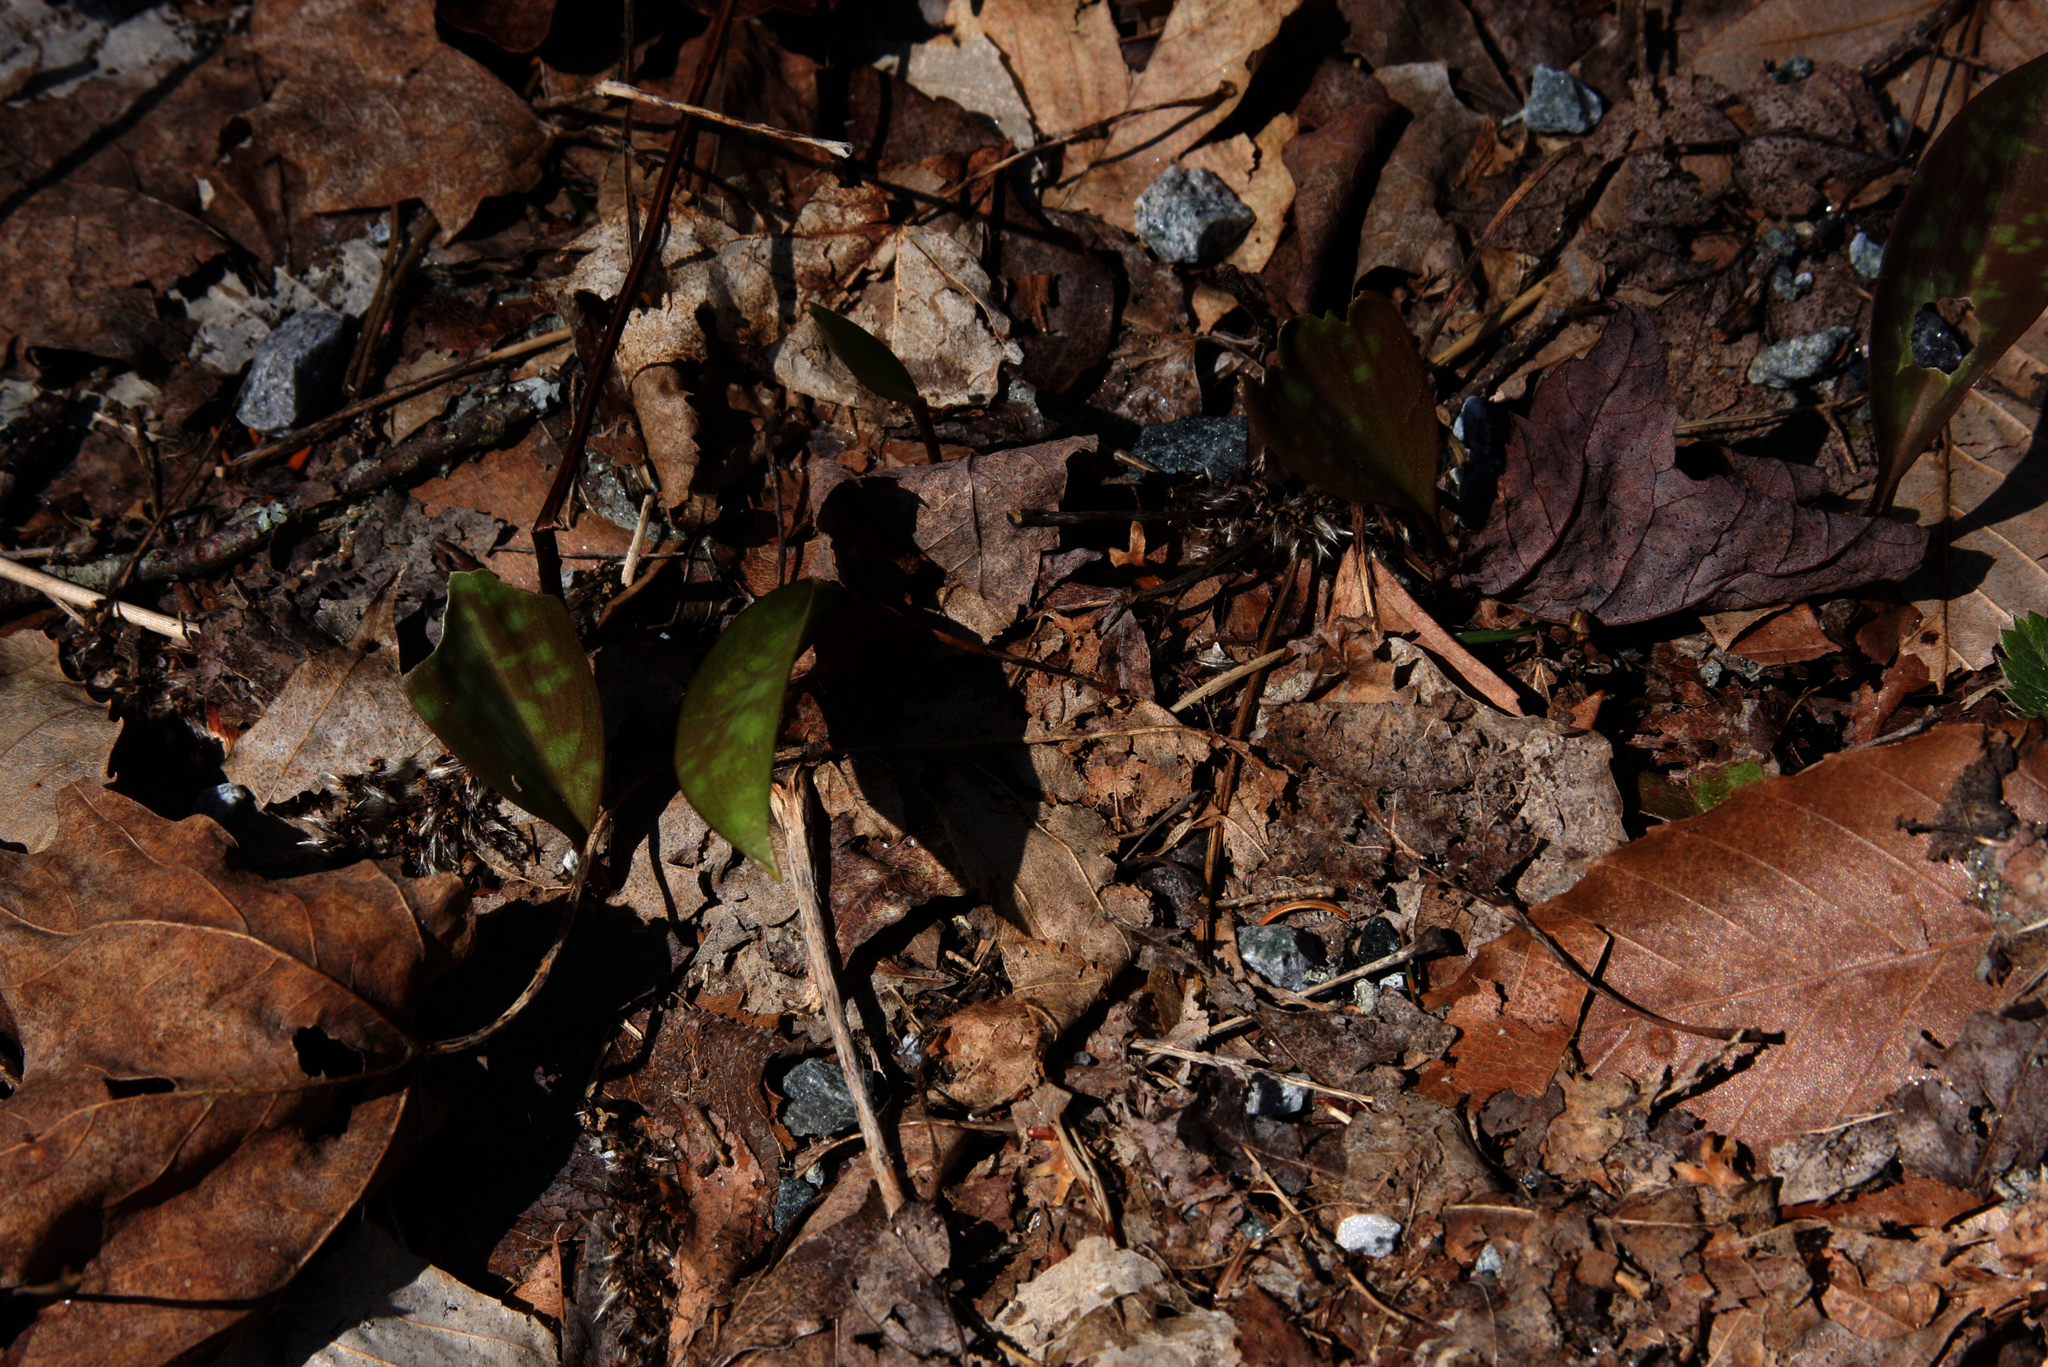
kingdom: Plantae
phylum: Tracheophyta
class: Liliopsida
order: Liliales
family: Liliaceae
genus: Erythronium
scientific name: Erythronium americanum
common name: Yellow adder's-tongue
